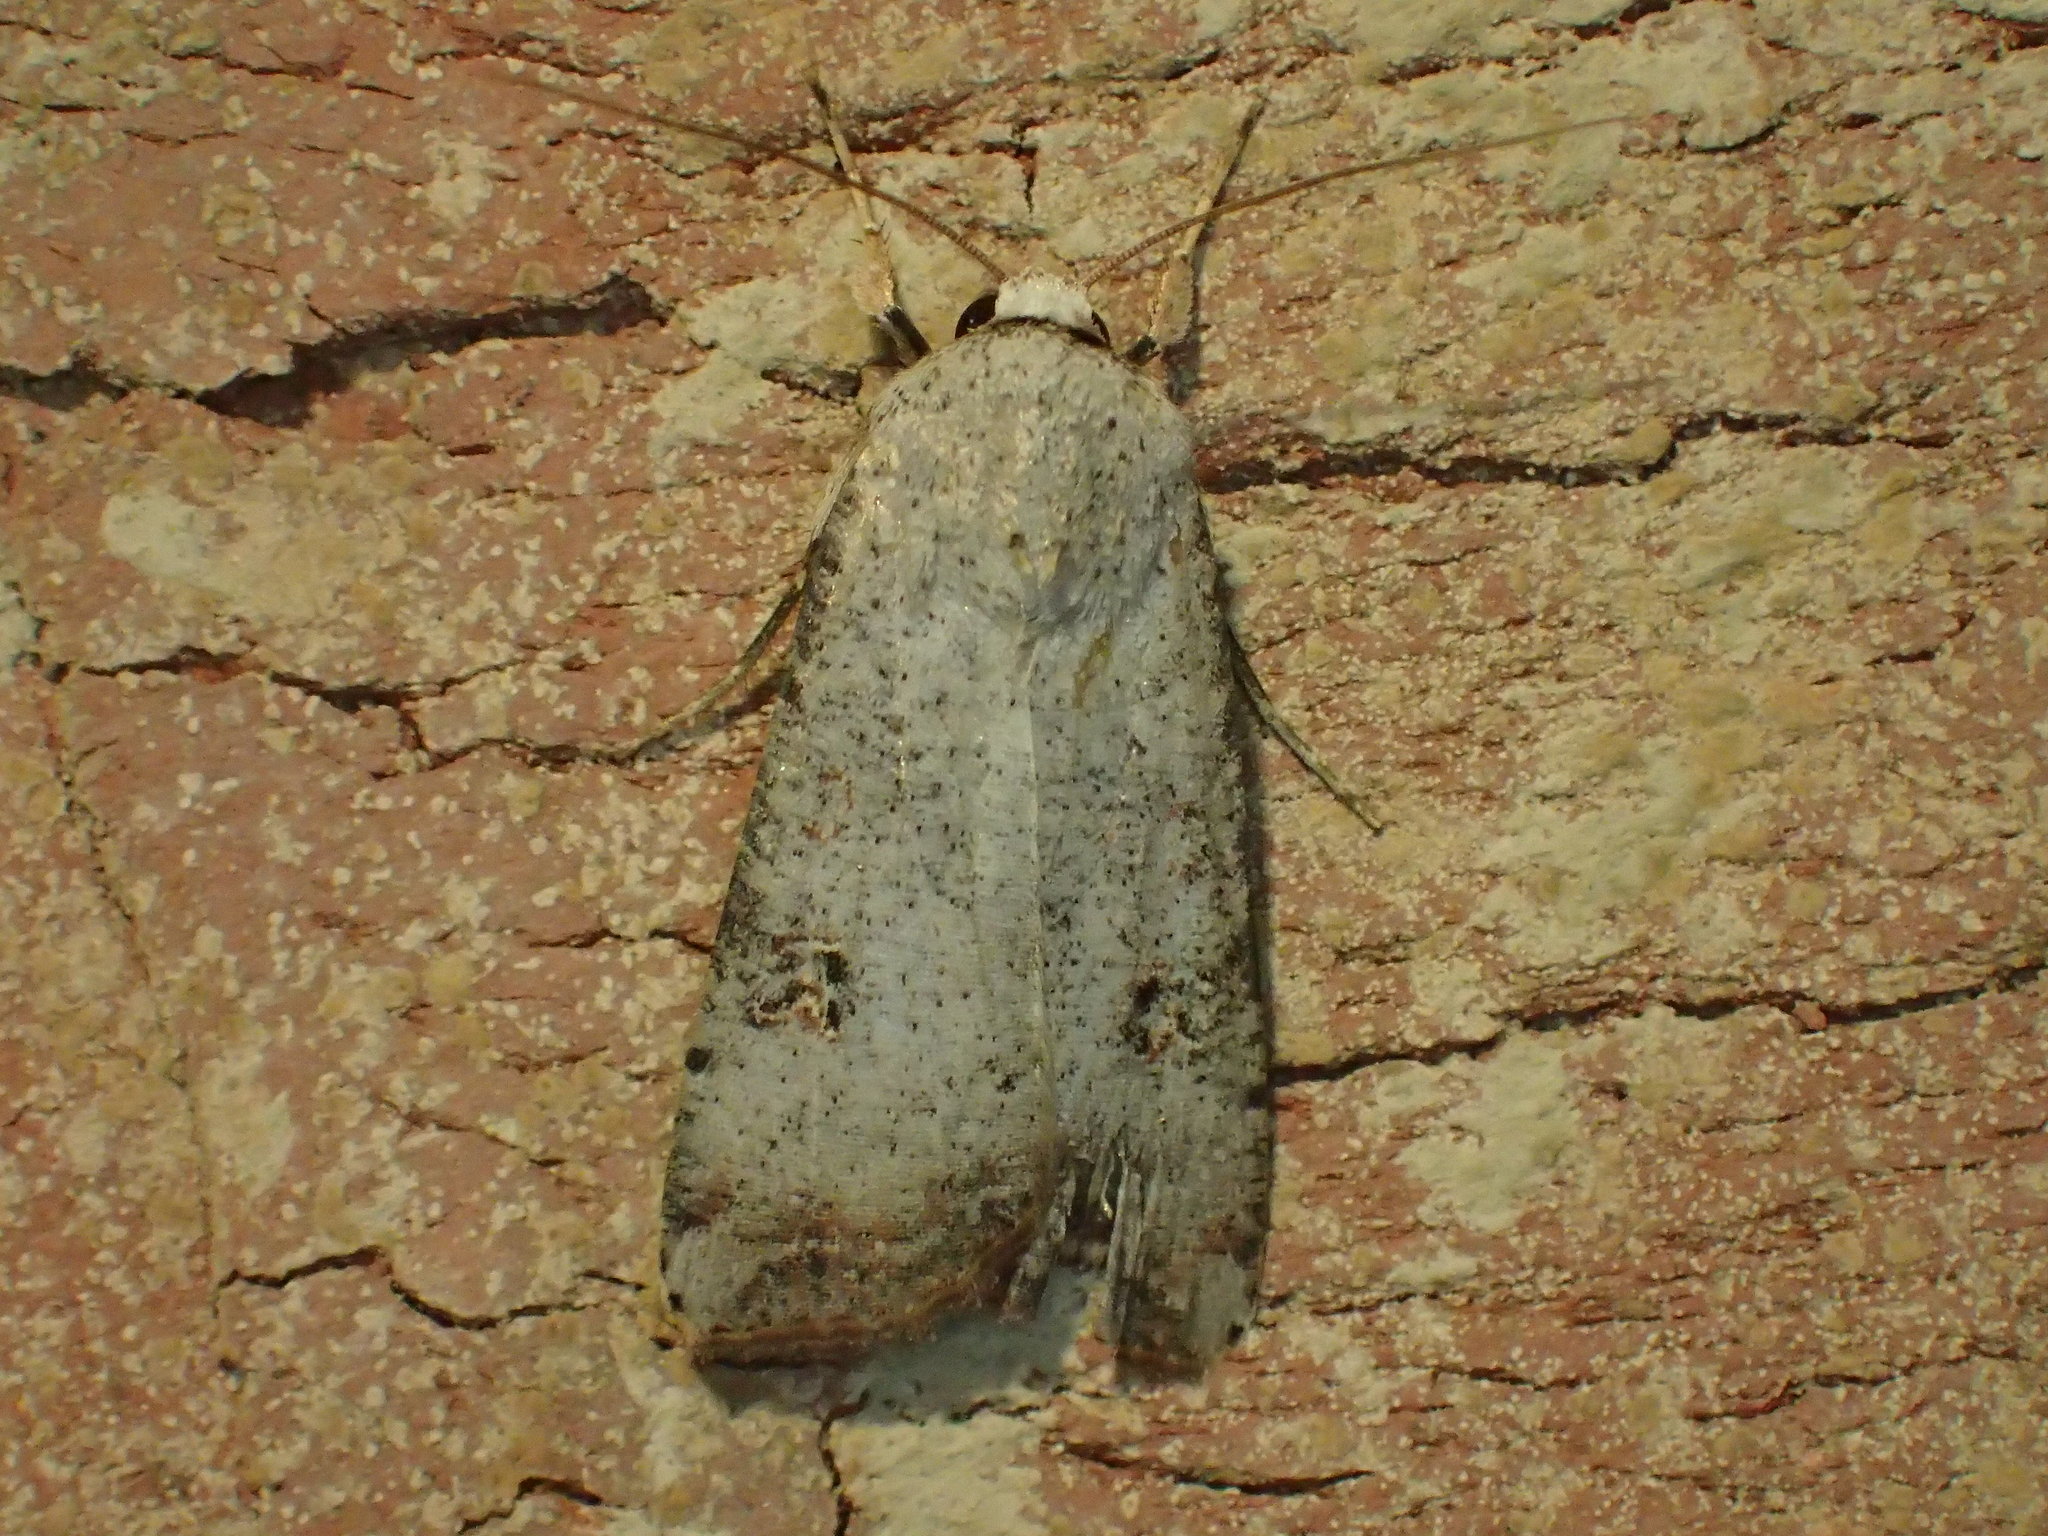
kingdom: Animalia
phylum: Arthropoda
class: Insecta
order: Lepidoptera
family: Noctuidae
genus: Anicla
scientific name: Anicla infecta
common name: Green cutworm
